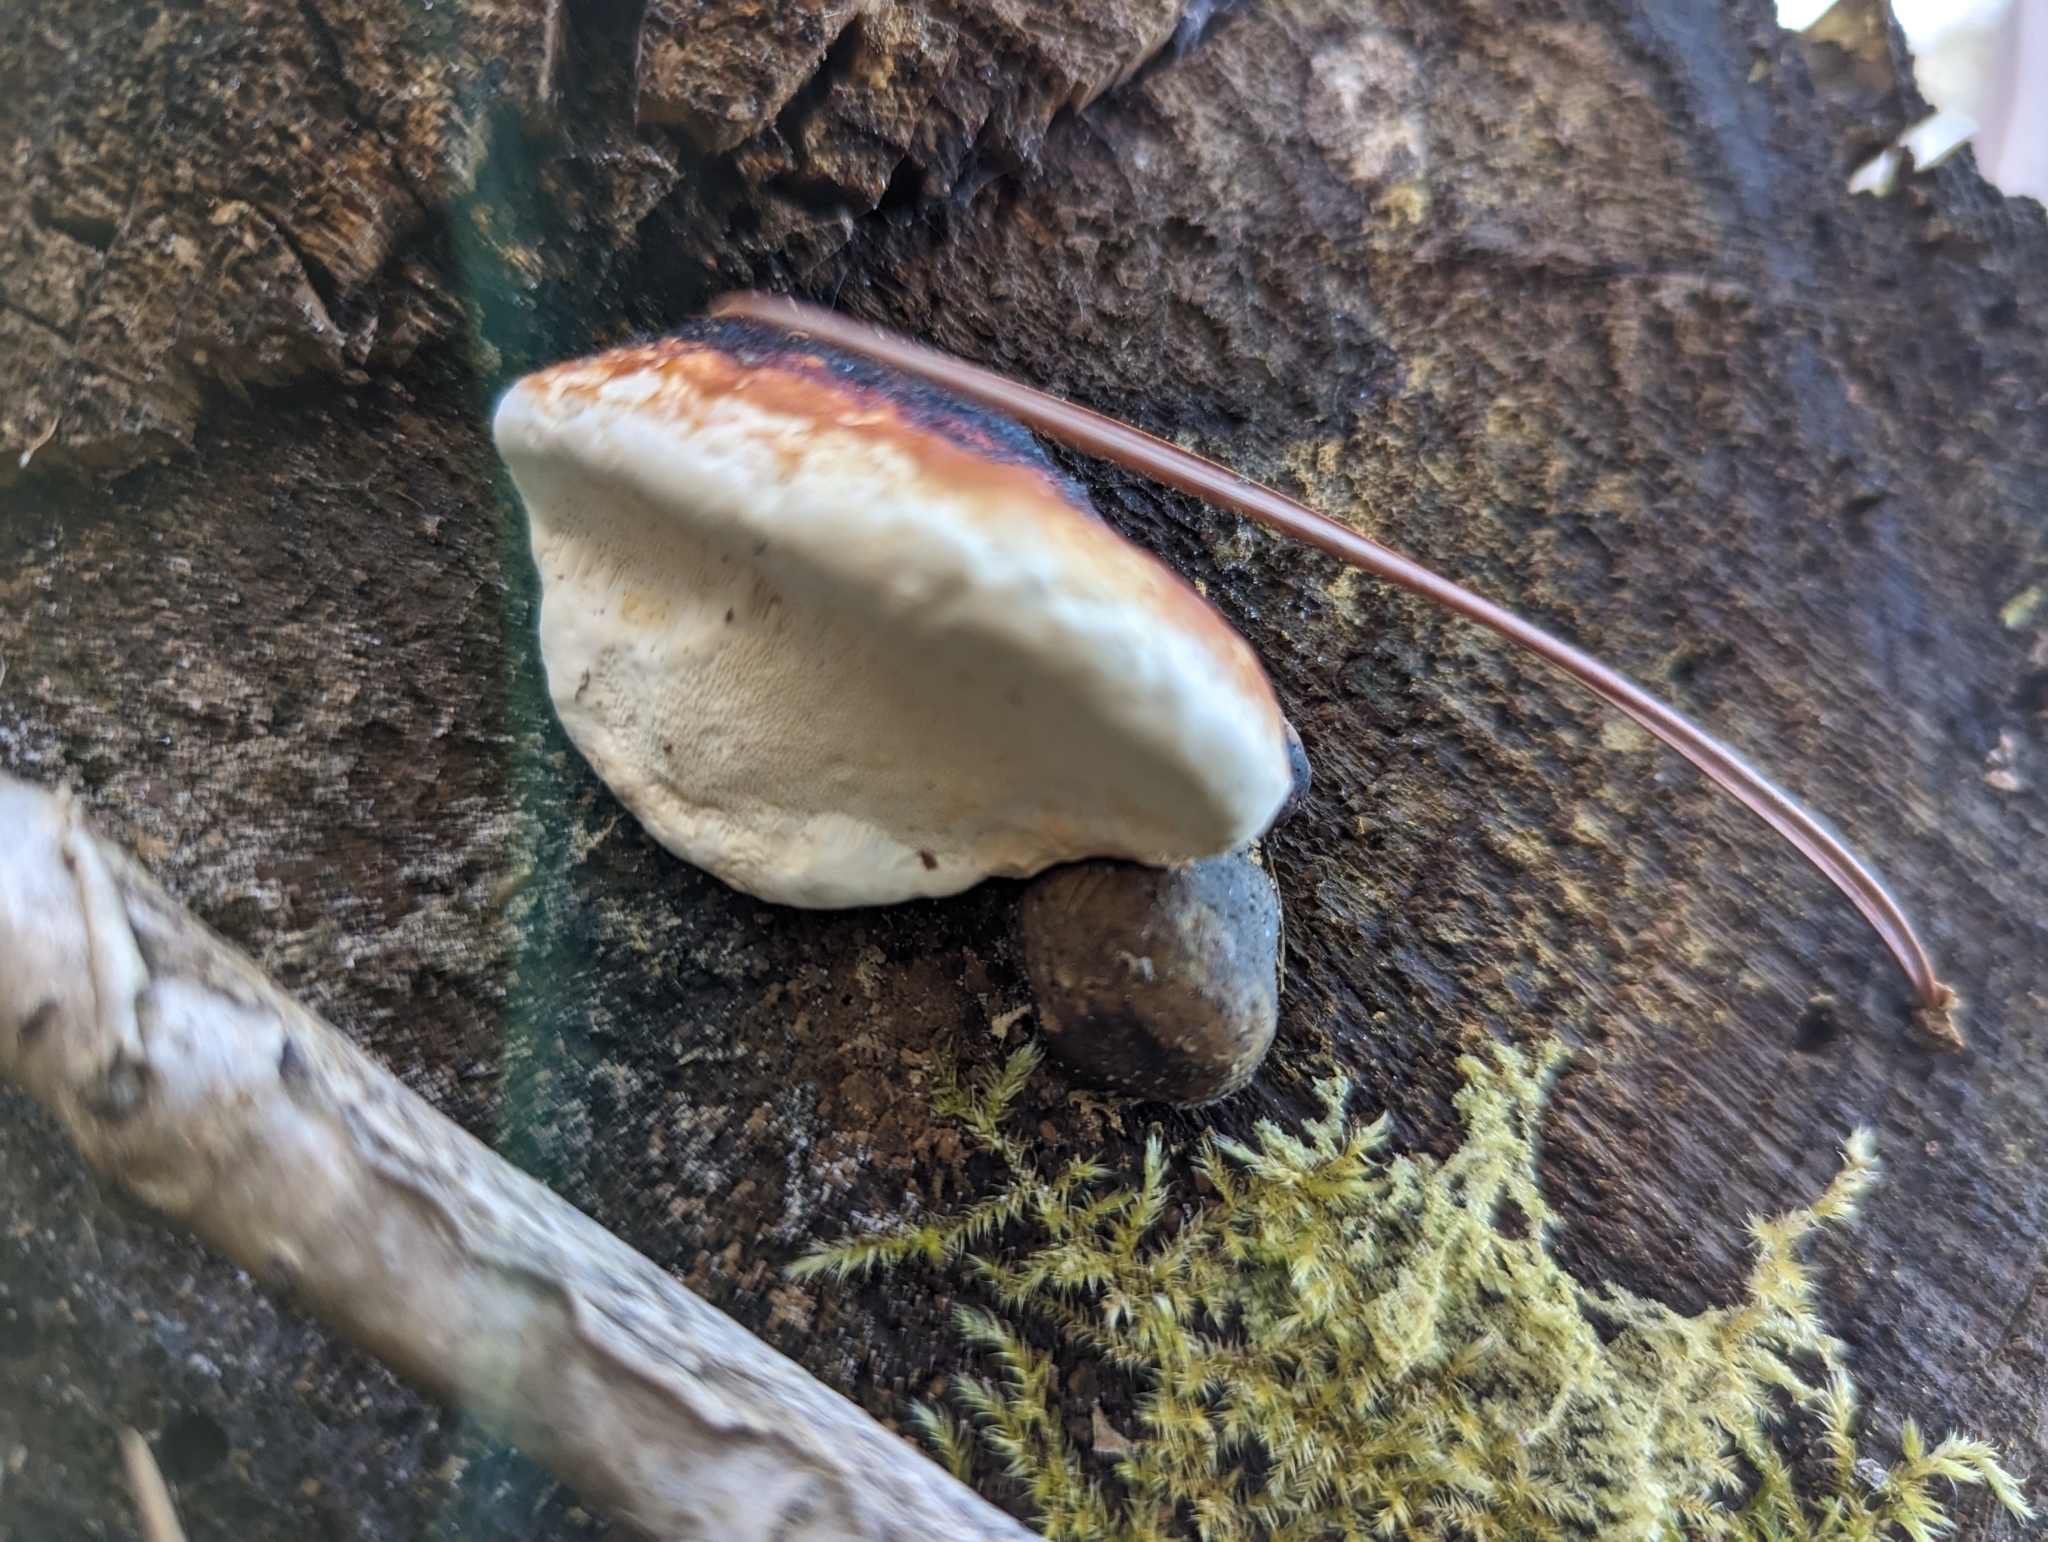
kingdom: Fungi
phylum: Basidiomycota
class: Agaricomycetes
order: Polyporales
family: Fomitopsidaceae
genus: Fomitopsis
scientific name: Fomitopsis mounceae
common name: Northern red belt
